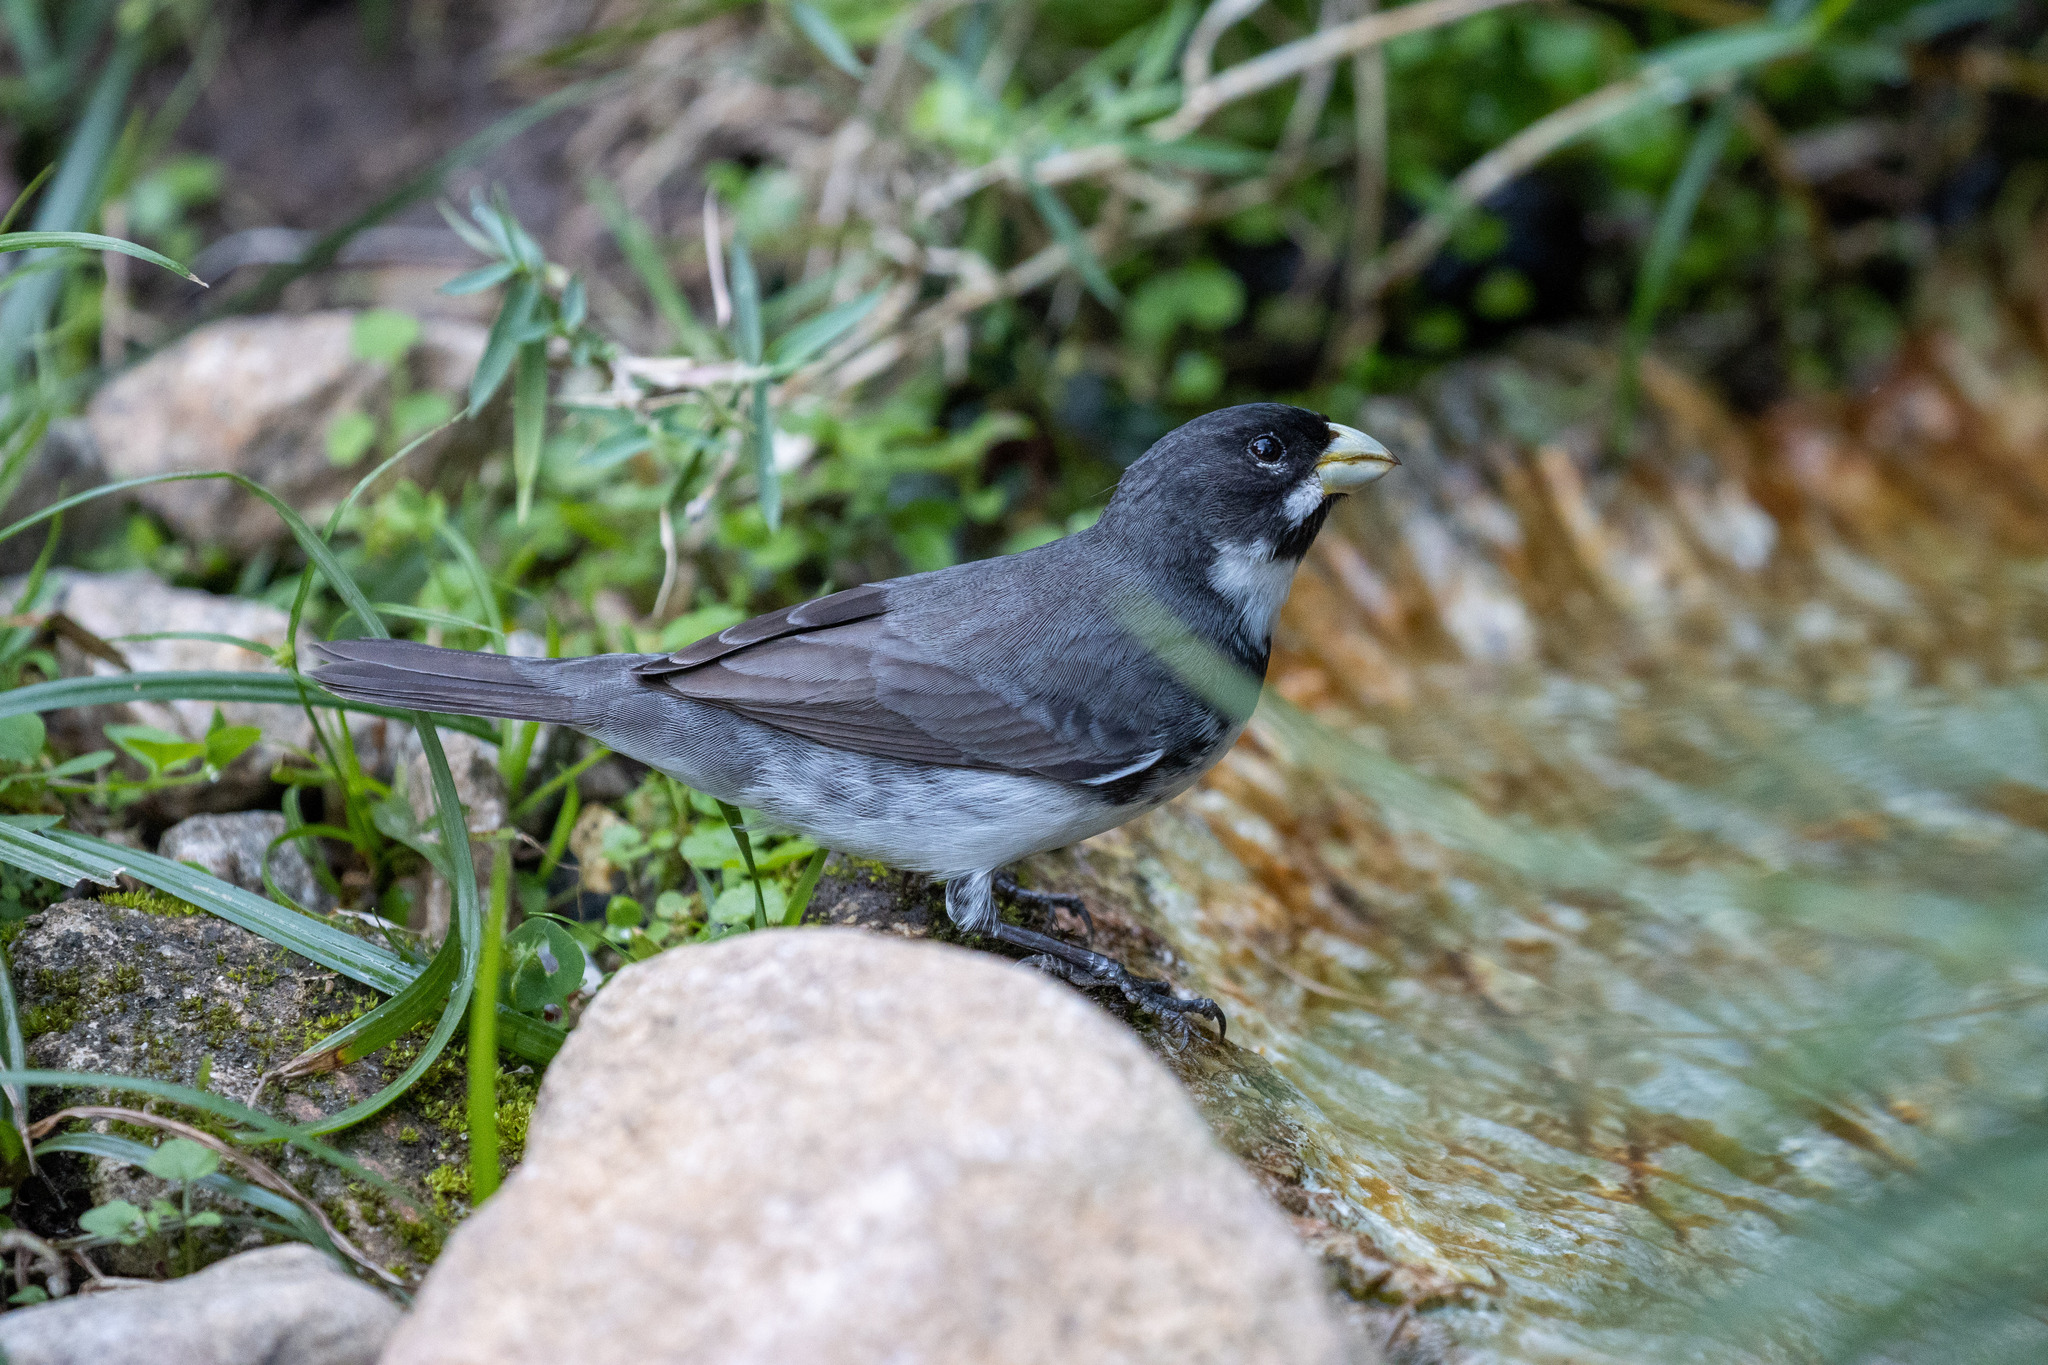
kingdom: Animalia
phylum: Chordata
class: Aves
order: Passeriformes
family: Thraupidae
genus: Sporophila
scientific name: Sporophila caerulescens
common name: Double-collared seedeater
